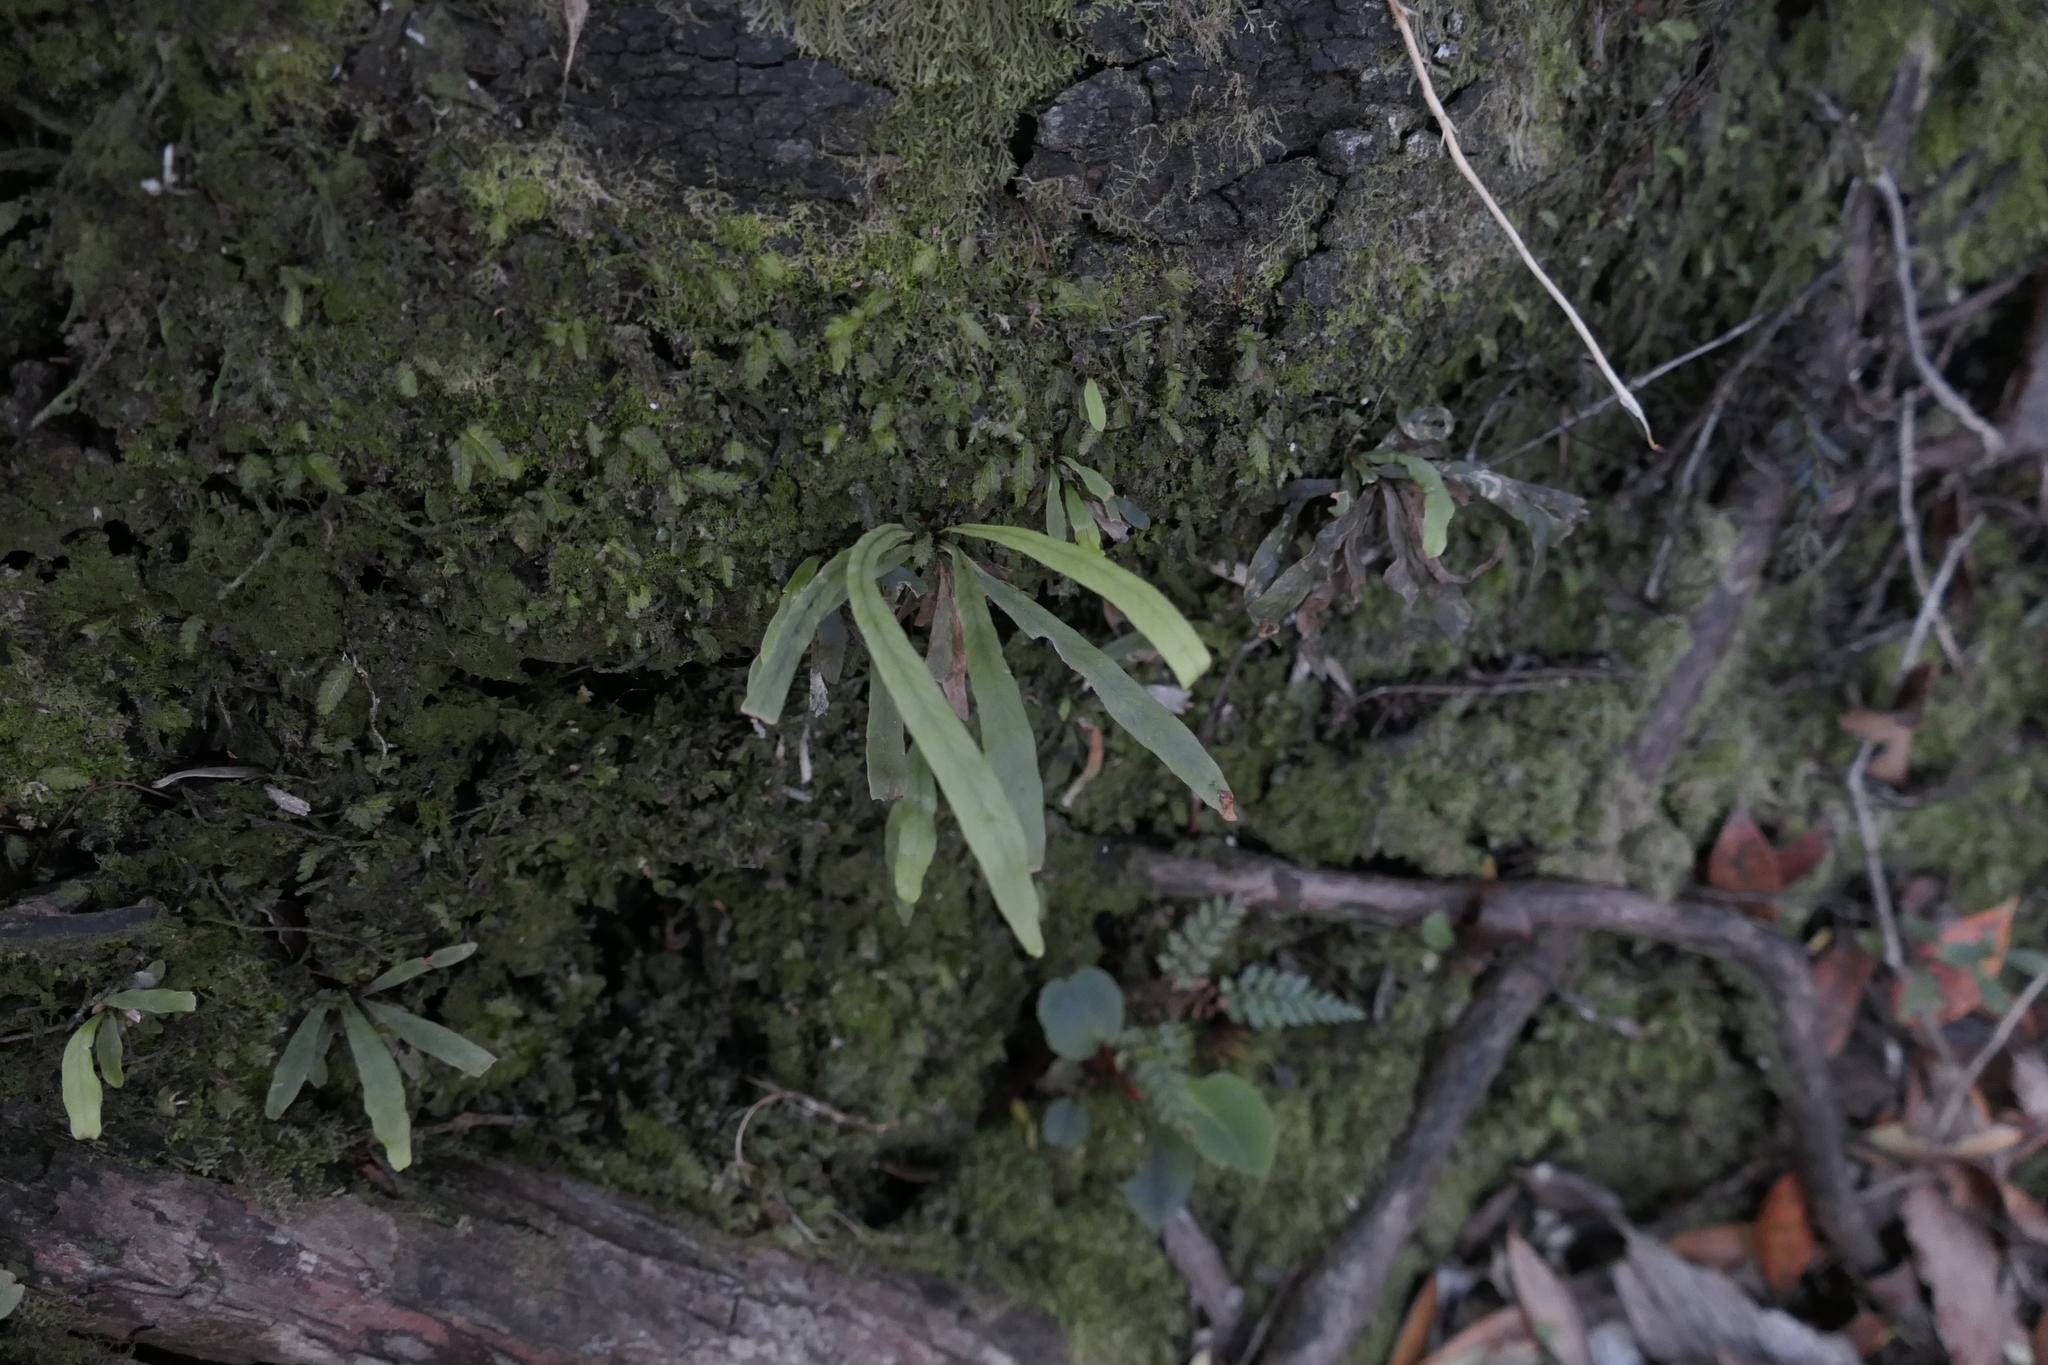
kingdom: Plantae
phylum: Tracheophyta
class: Polypodiopsida
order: Polypodiales
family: Polypodiaceae
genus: Notogrammitis
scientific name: Notogrammitis billardierei
